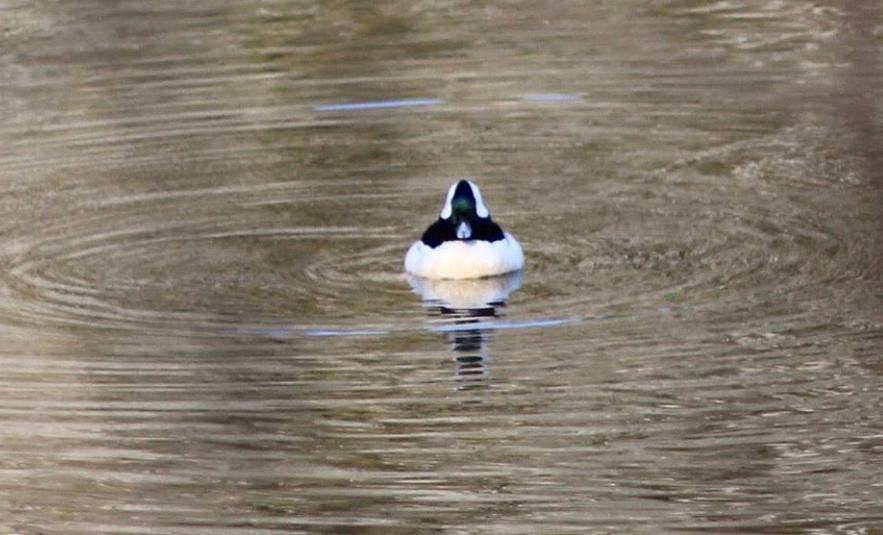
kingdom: Animalia
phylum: Chordata
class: Aves
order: Anseriformes
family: Anatidae
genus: Bucephala
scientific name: Bucephala albeola
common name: Bufflehead
